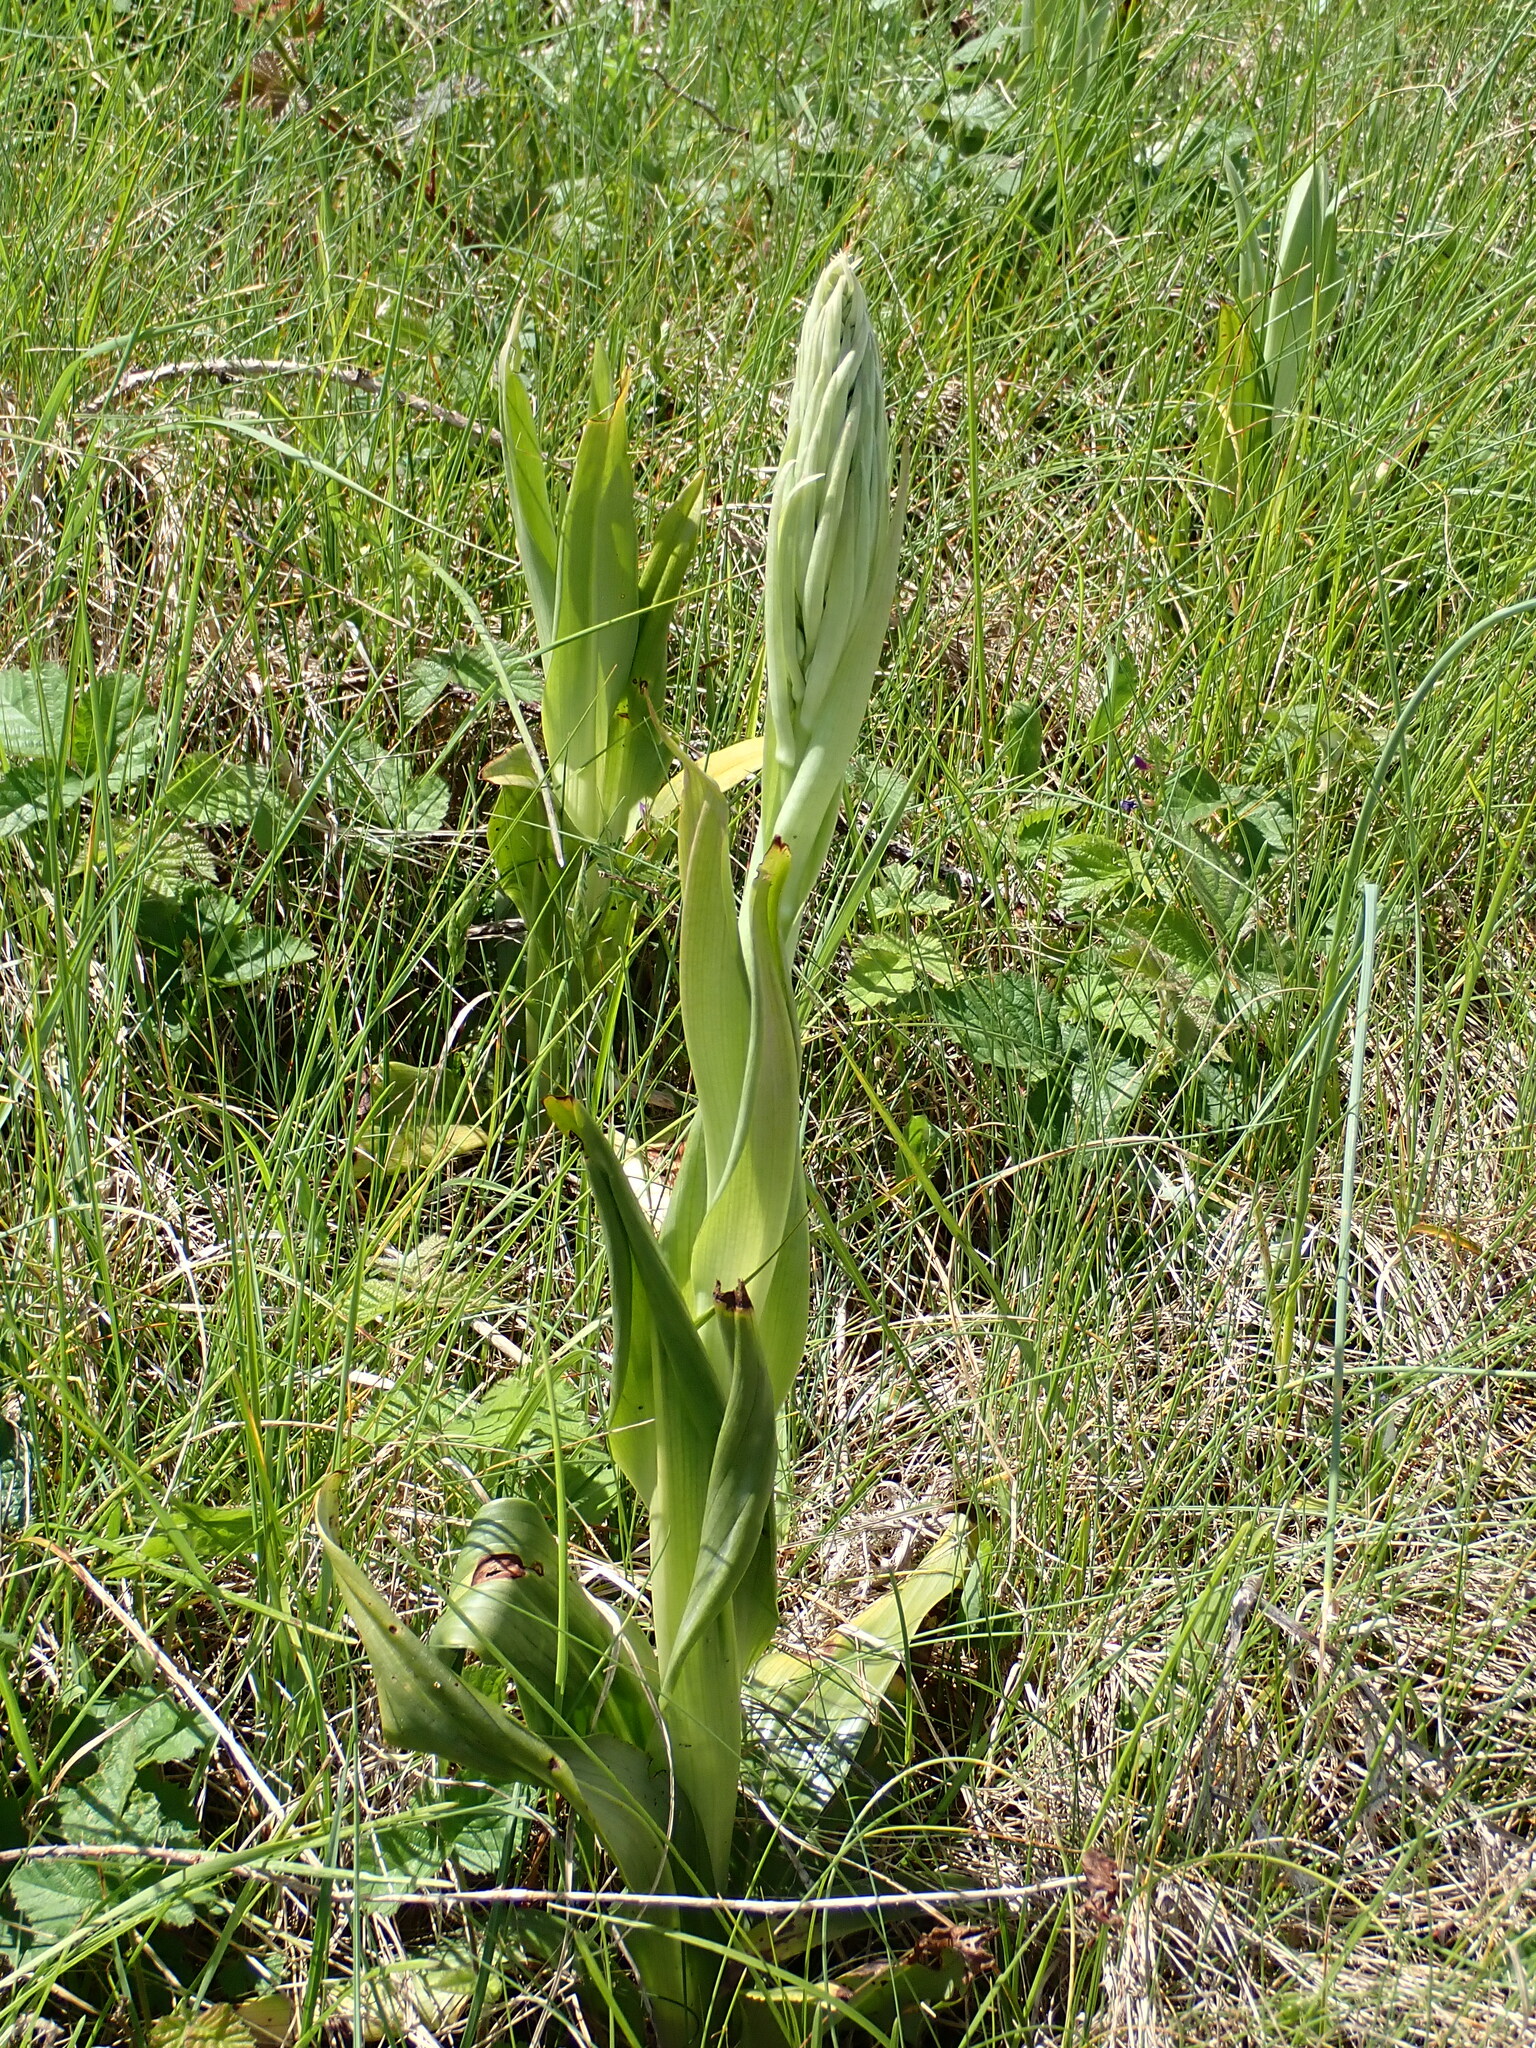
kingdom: Plantae
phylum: Tracheophyta
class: Liliopsida
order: Asparagales
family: Orchidaceae
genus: Himantoglossum
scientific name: Himantoglossum hircinum
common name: Lizard orchid
